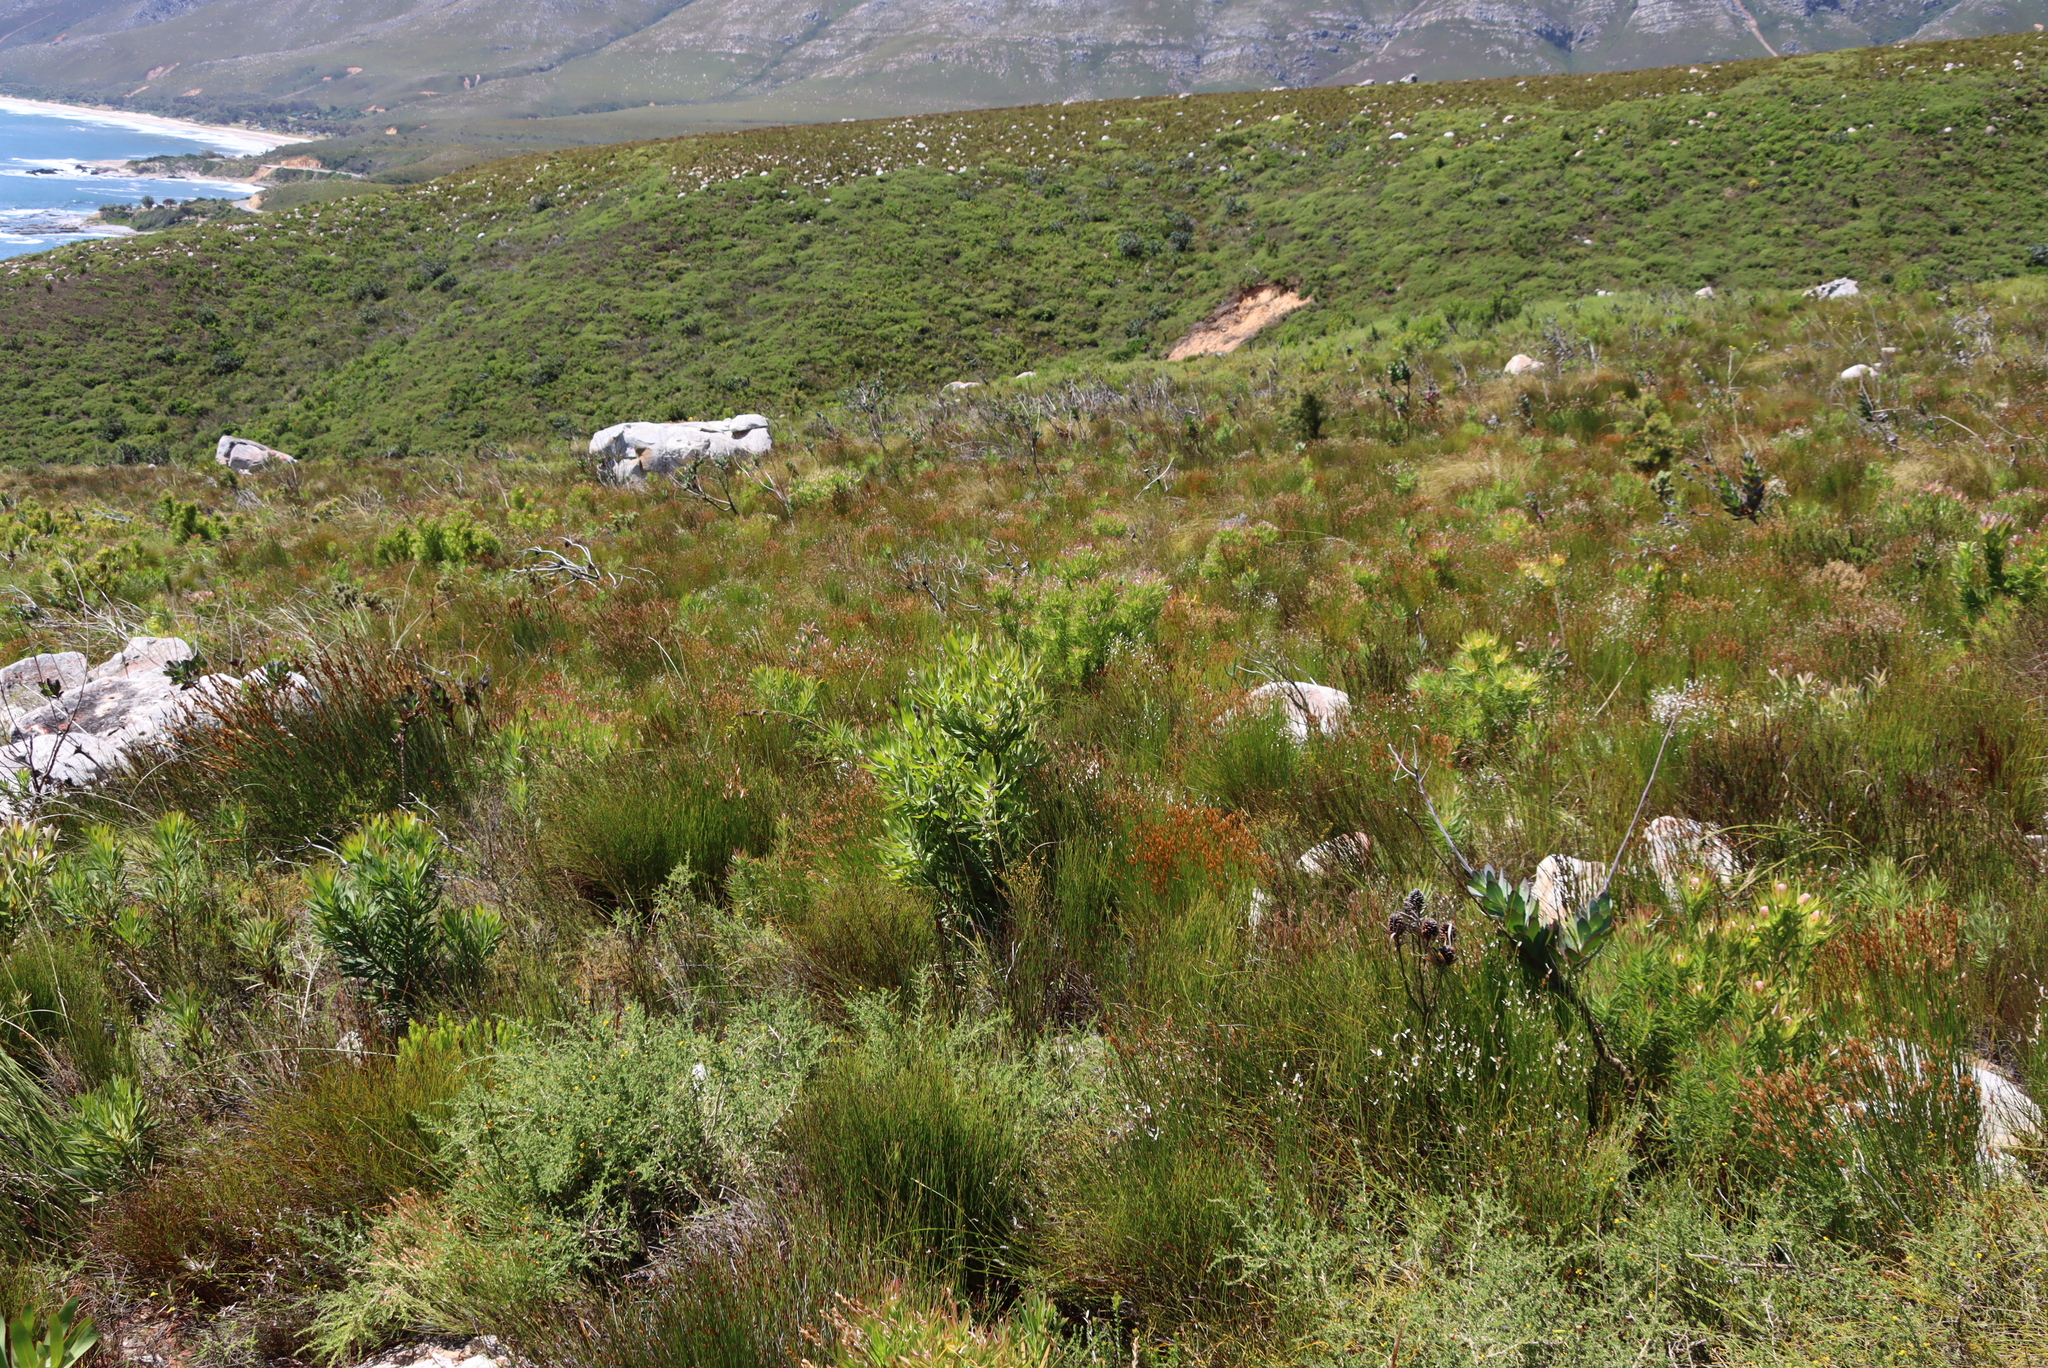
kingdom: Plantae
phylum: Tracheophyta
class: Magnoliopsida
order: Proteales
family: Proteaceae
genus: Protea
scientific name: Protea laurifolia
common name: Grey-leaf sugarbsh
